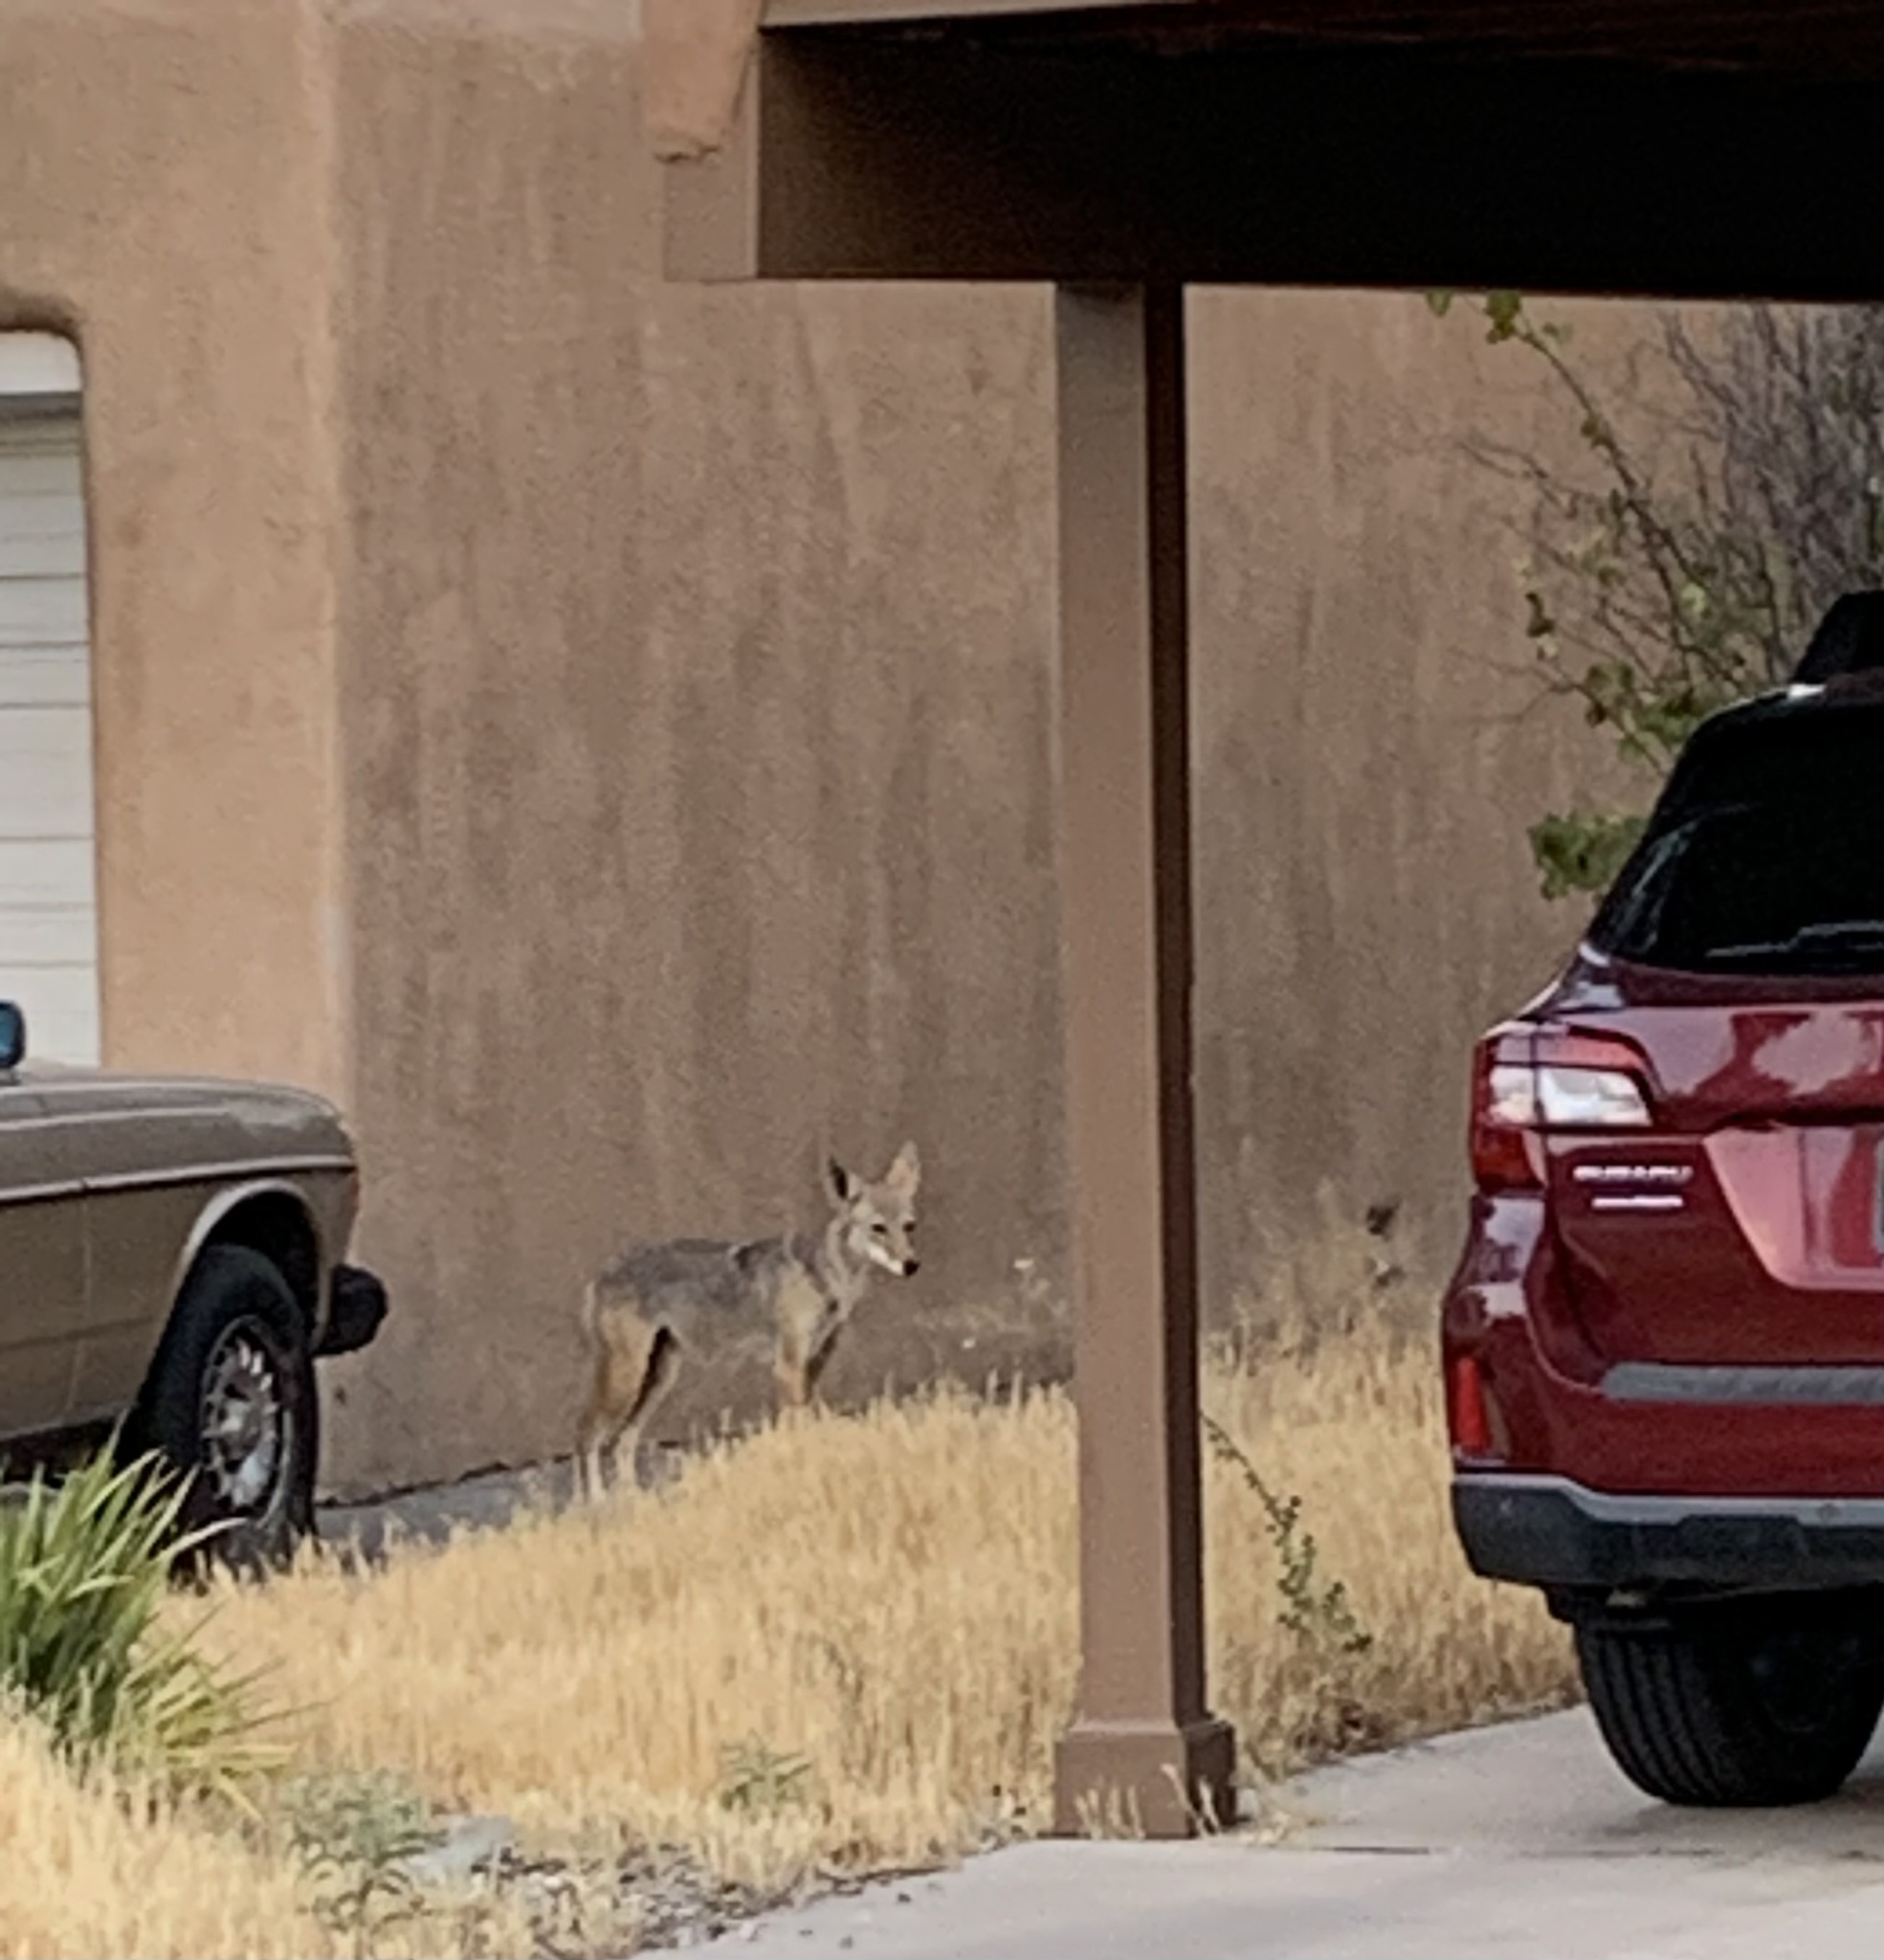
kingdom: Animalia
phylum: Chordata
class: Mammalia
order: Carnivora
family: Canidae
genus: Canis
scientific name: Canis latrans
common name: Coyote
